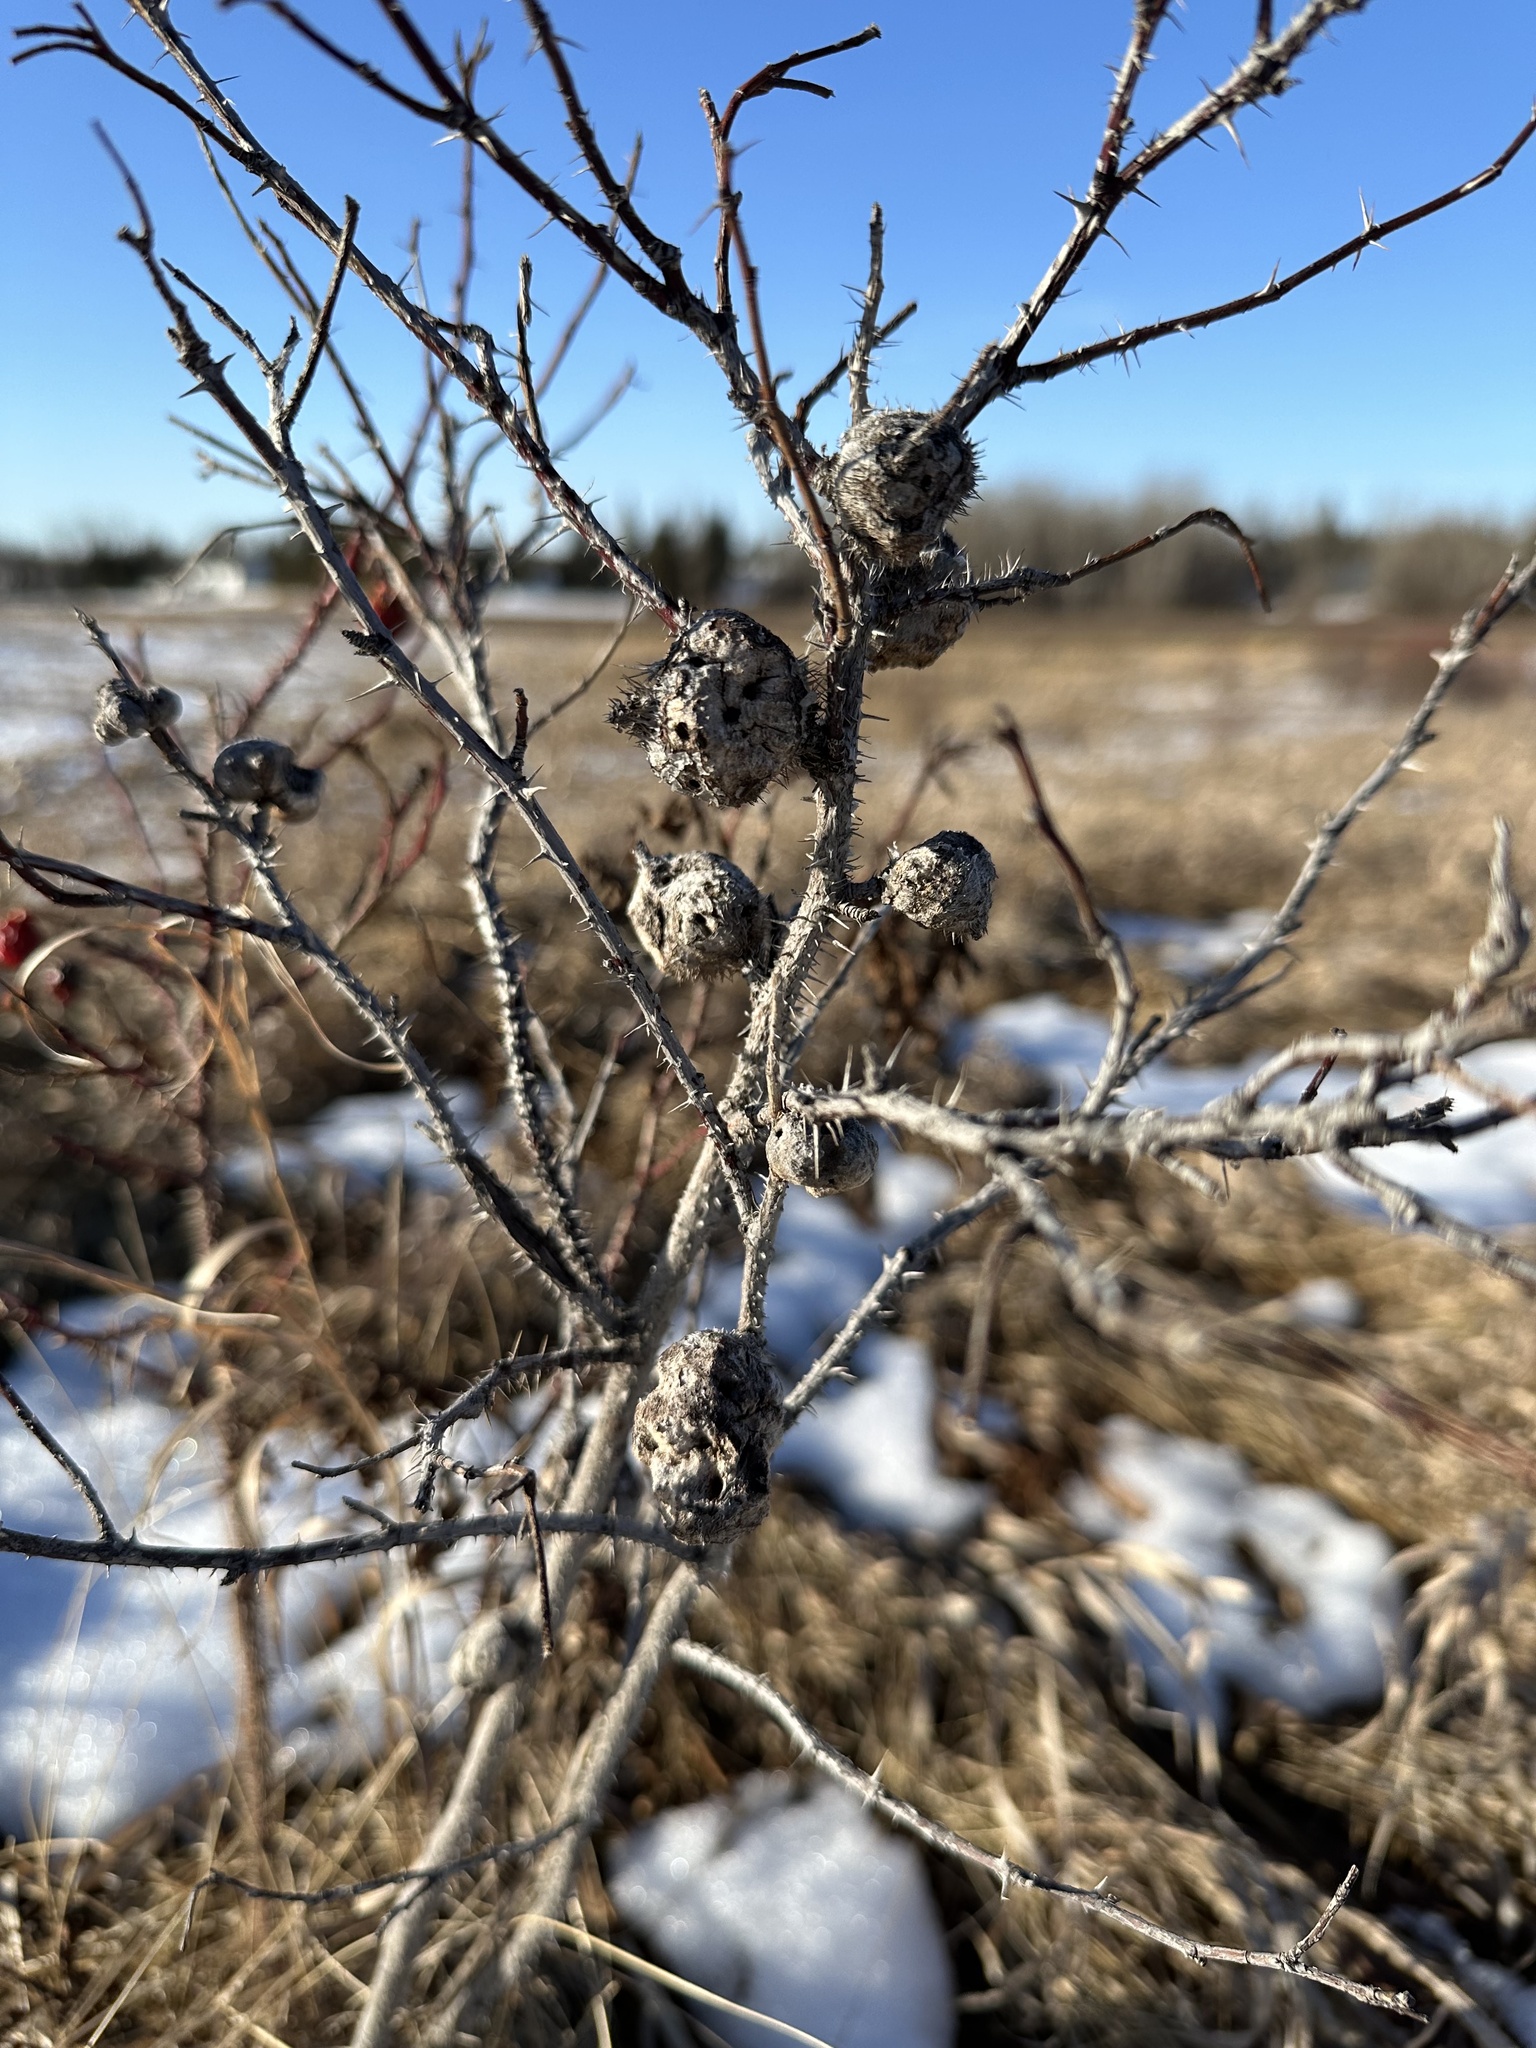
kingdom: Animalia
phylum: Arthropoda
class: Insecta
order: Hymenoptera
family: Cynipidae
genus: Diplolepis
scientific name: Diplolepis spinosa
